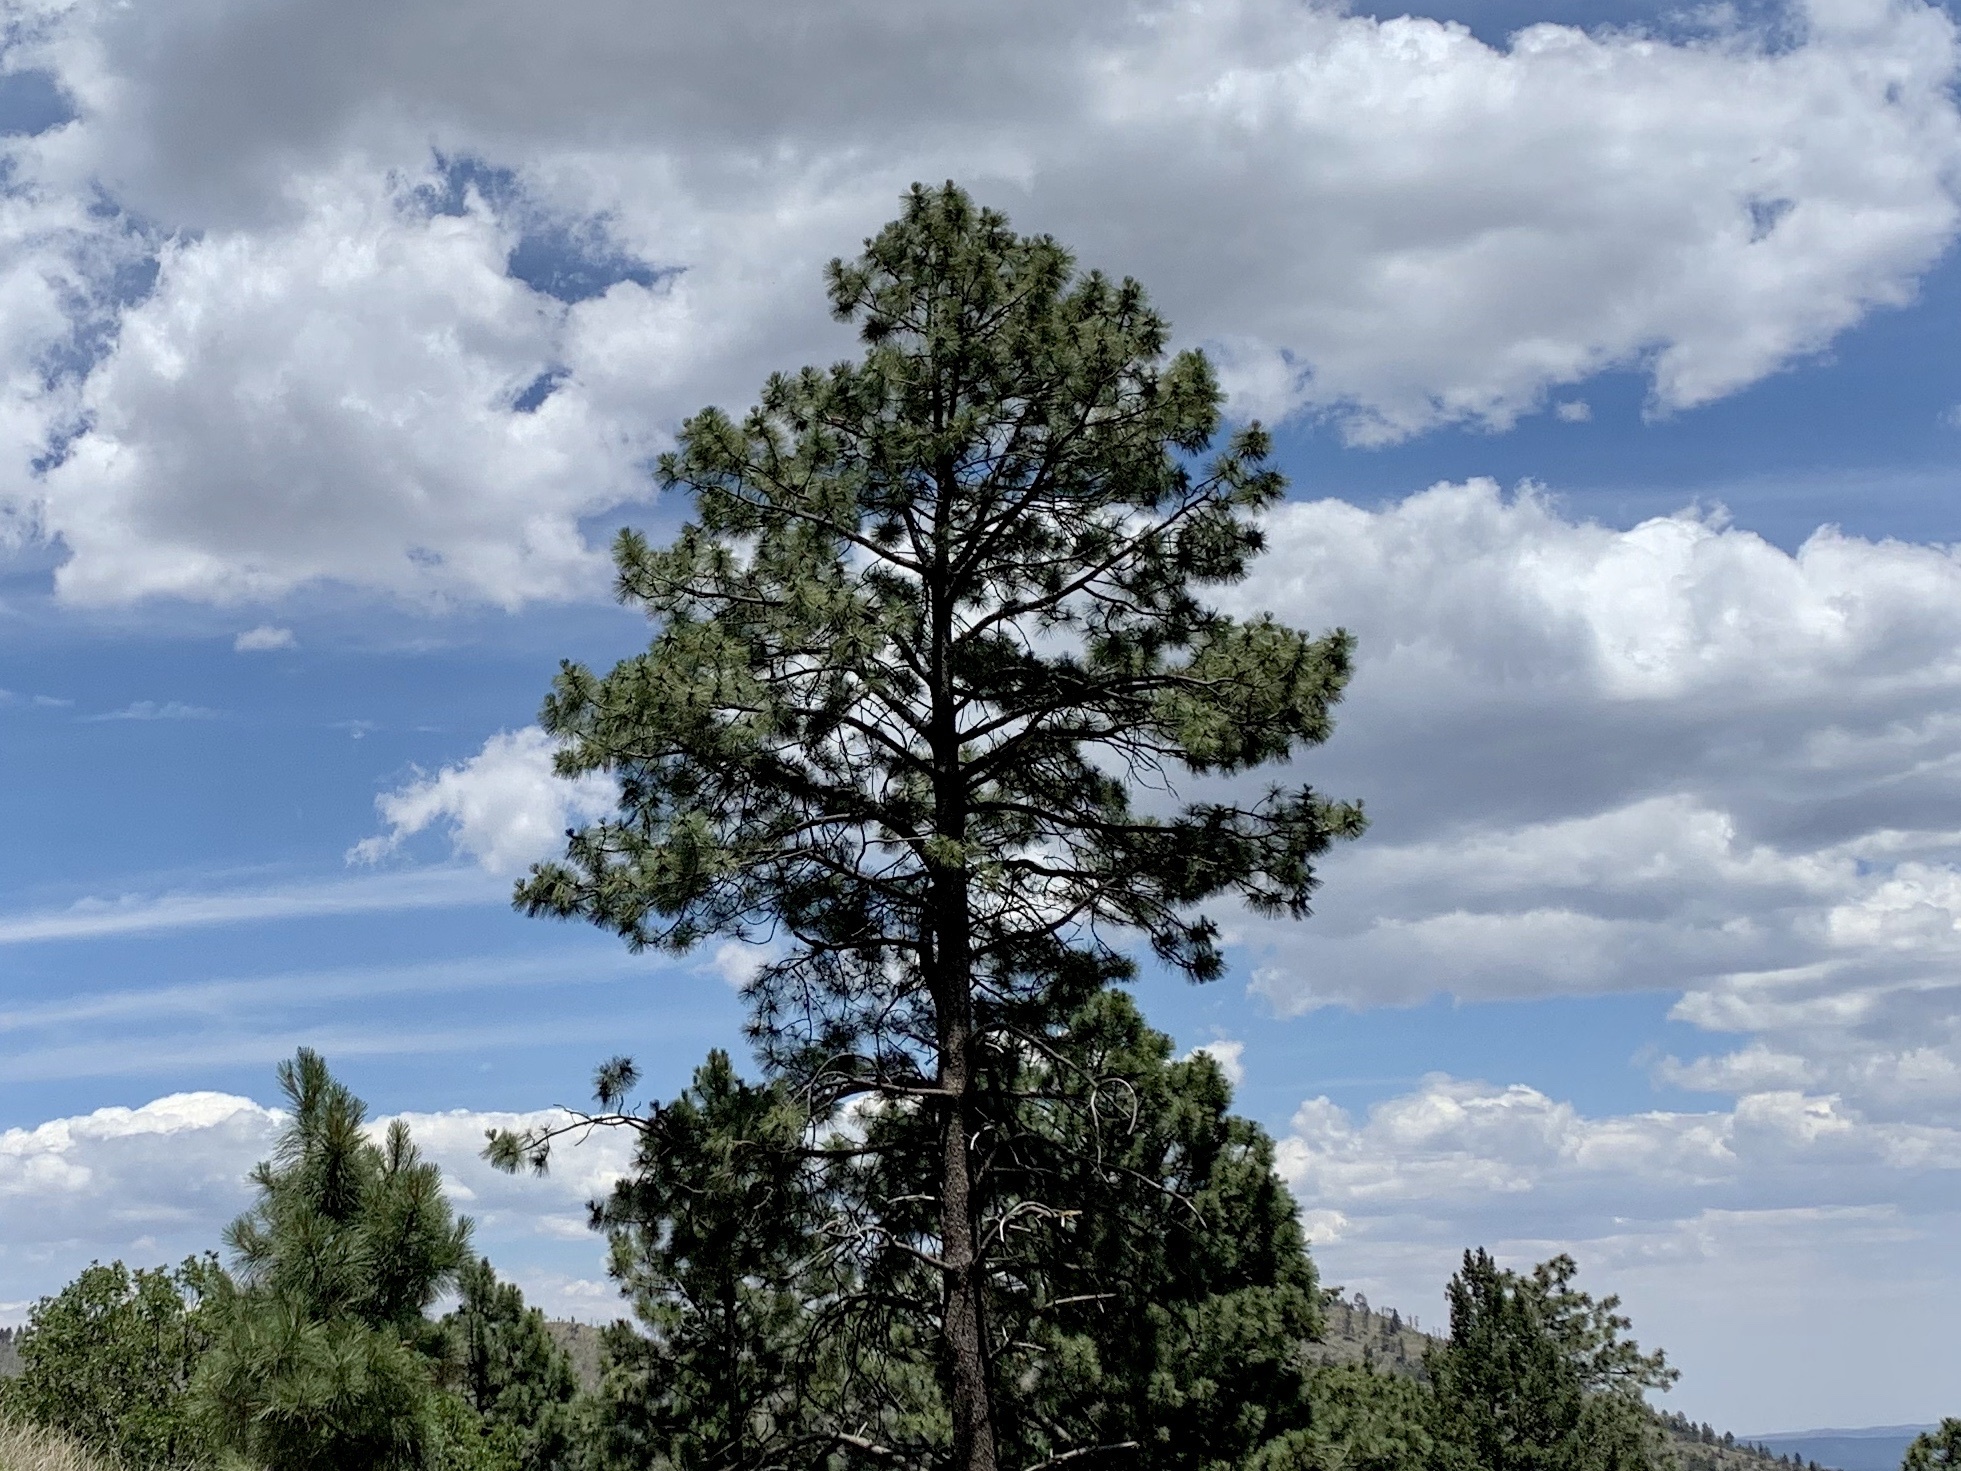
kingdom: Plantae
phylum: Tracheophyta
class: Pinopsida
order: Pinales
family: Pinaceae
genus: Pinus
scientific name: Pinus ponderosa
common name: Western yellow-pine
